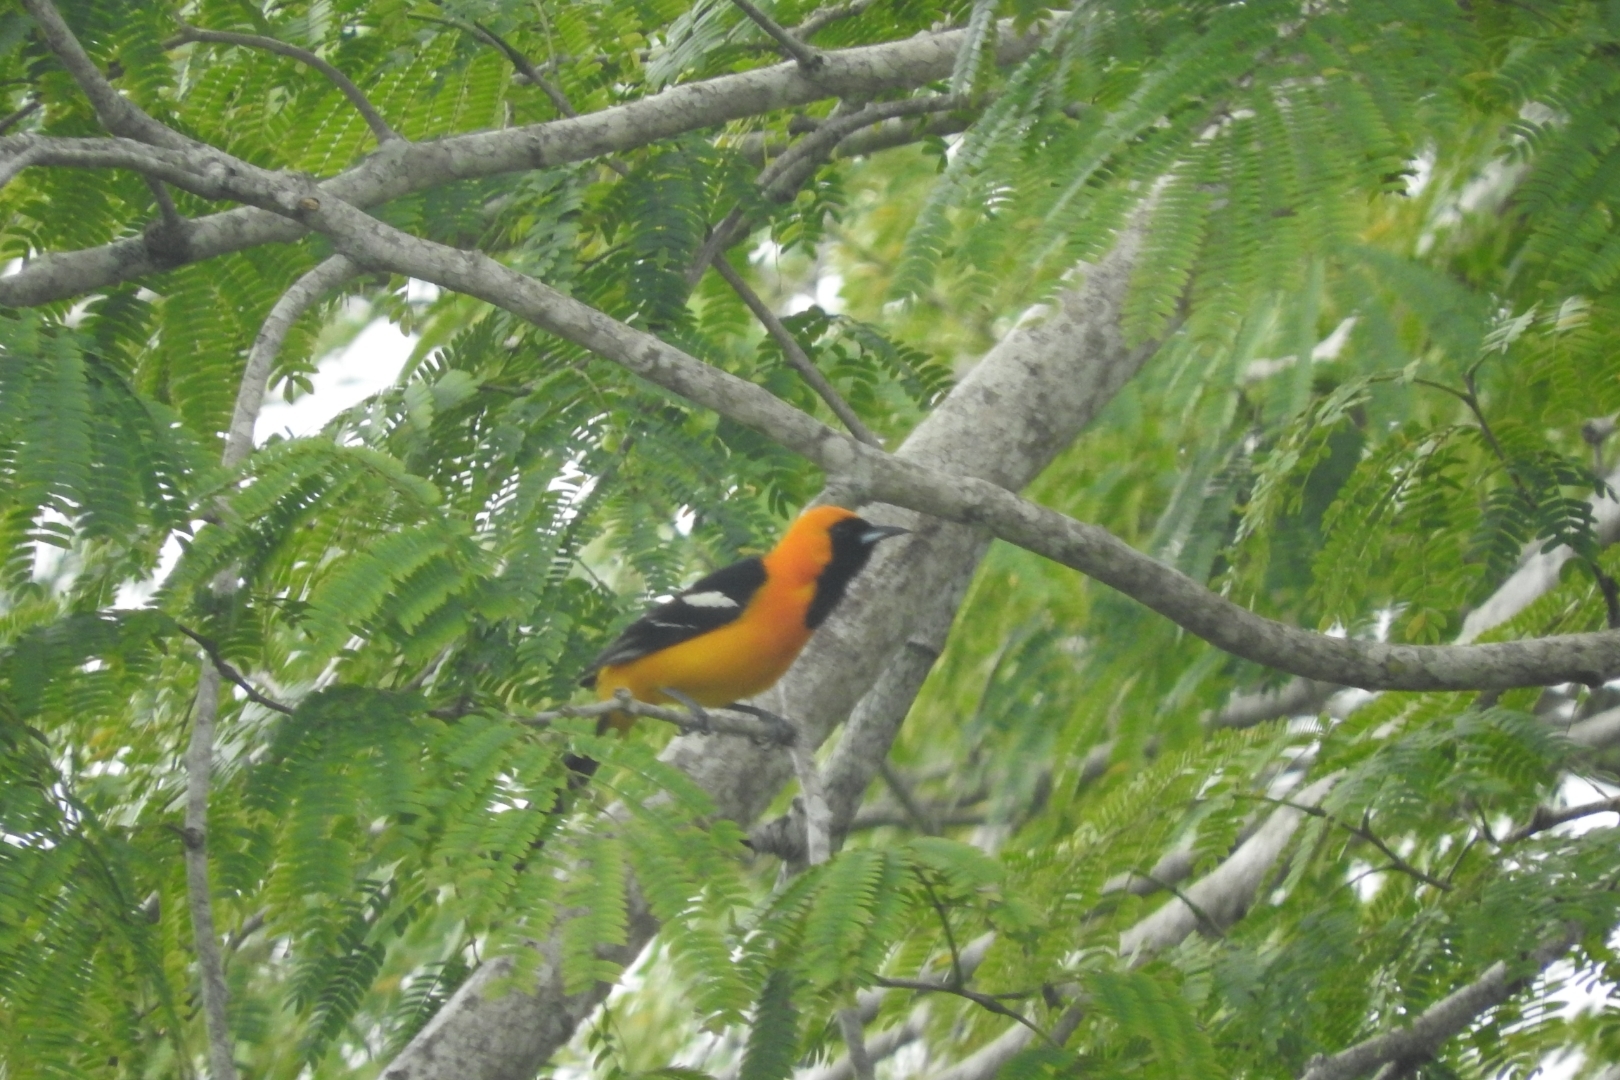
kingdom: Animalia
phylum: Chordata
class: Aves
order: Passeriformes
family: Icteridae
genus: Icterus
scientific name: Icterus cucullatus
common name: Hooded oriole
